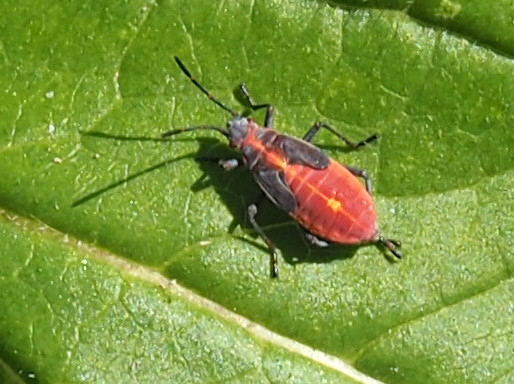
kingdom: Animalia
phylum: Arthropoda
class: Insecta
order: Hemiptera
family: Rhopalidae
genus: Boisea
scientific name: Boisea trivittata
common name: Boxelder bug
